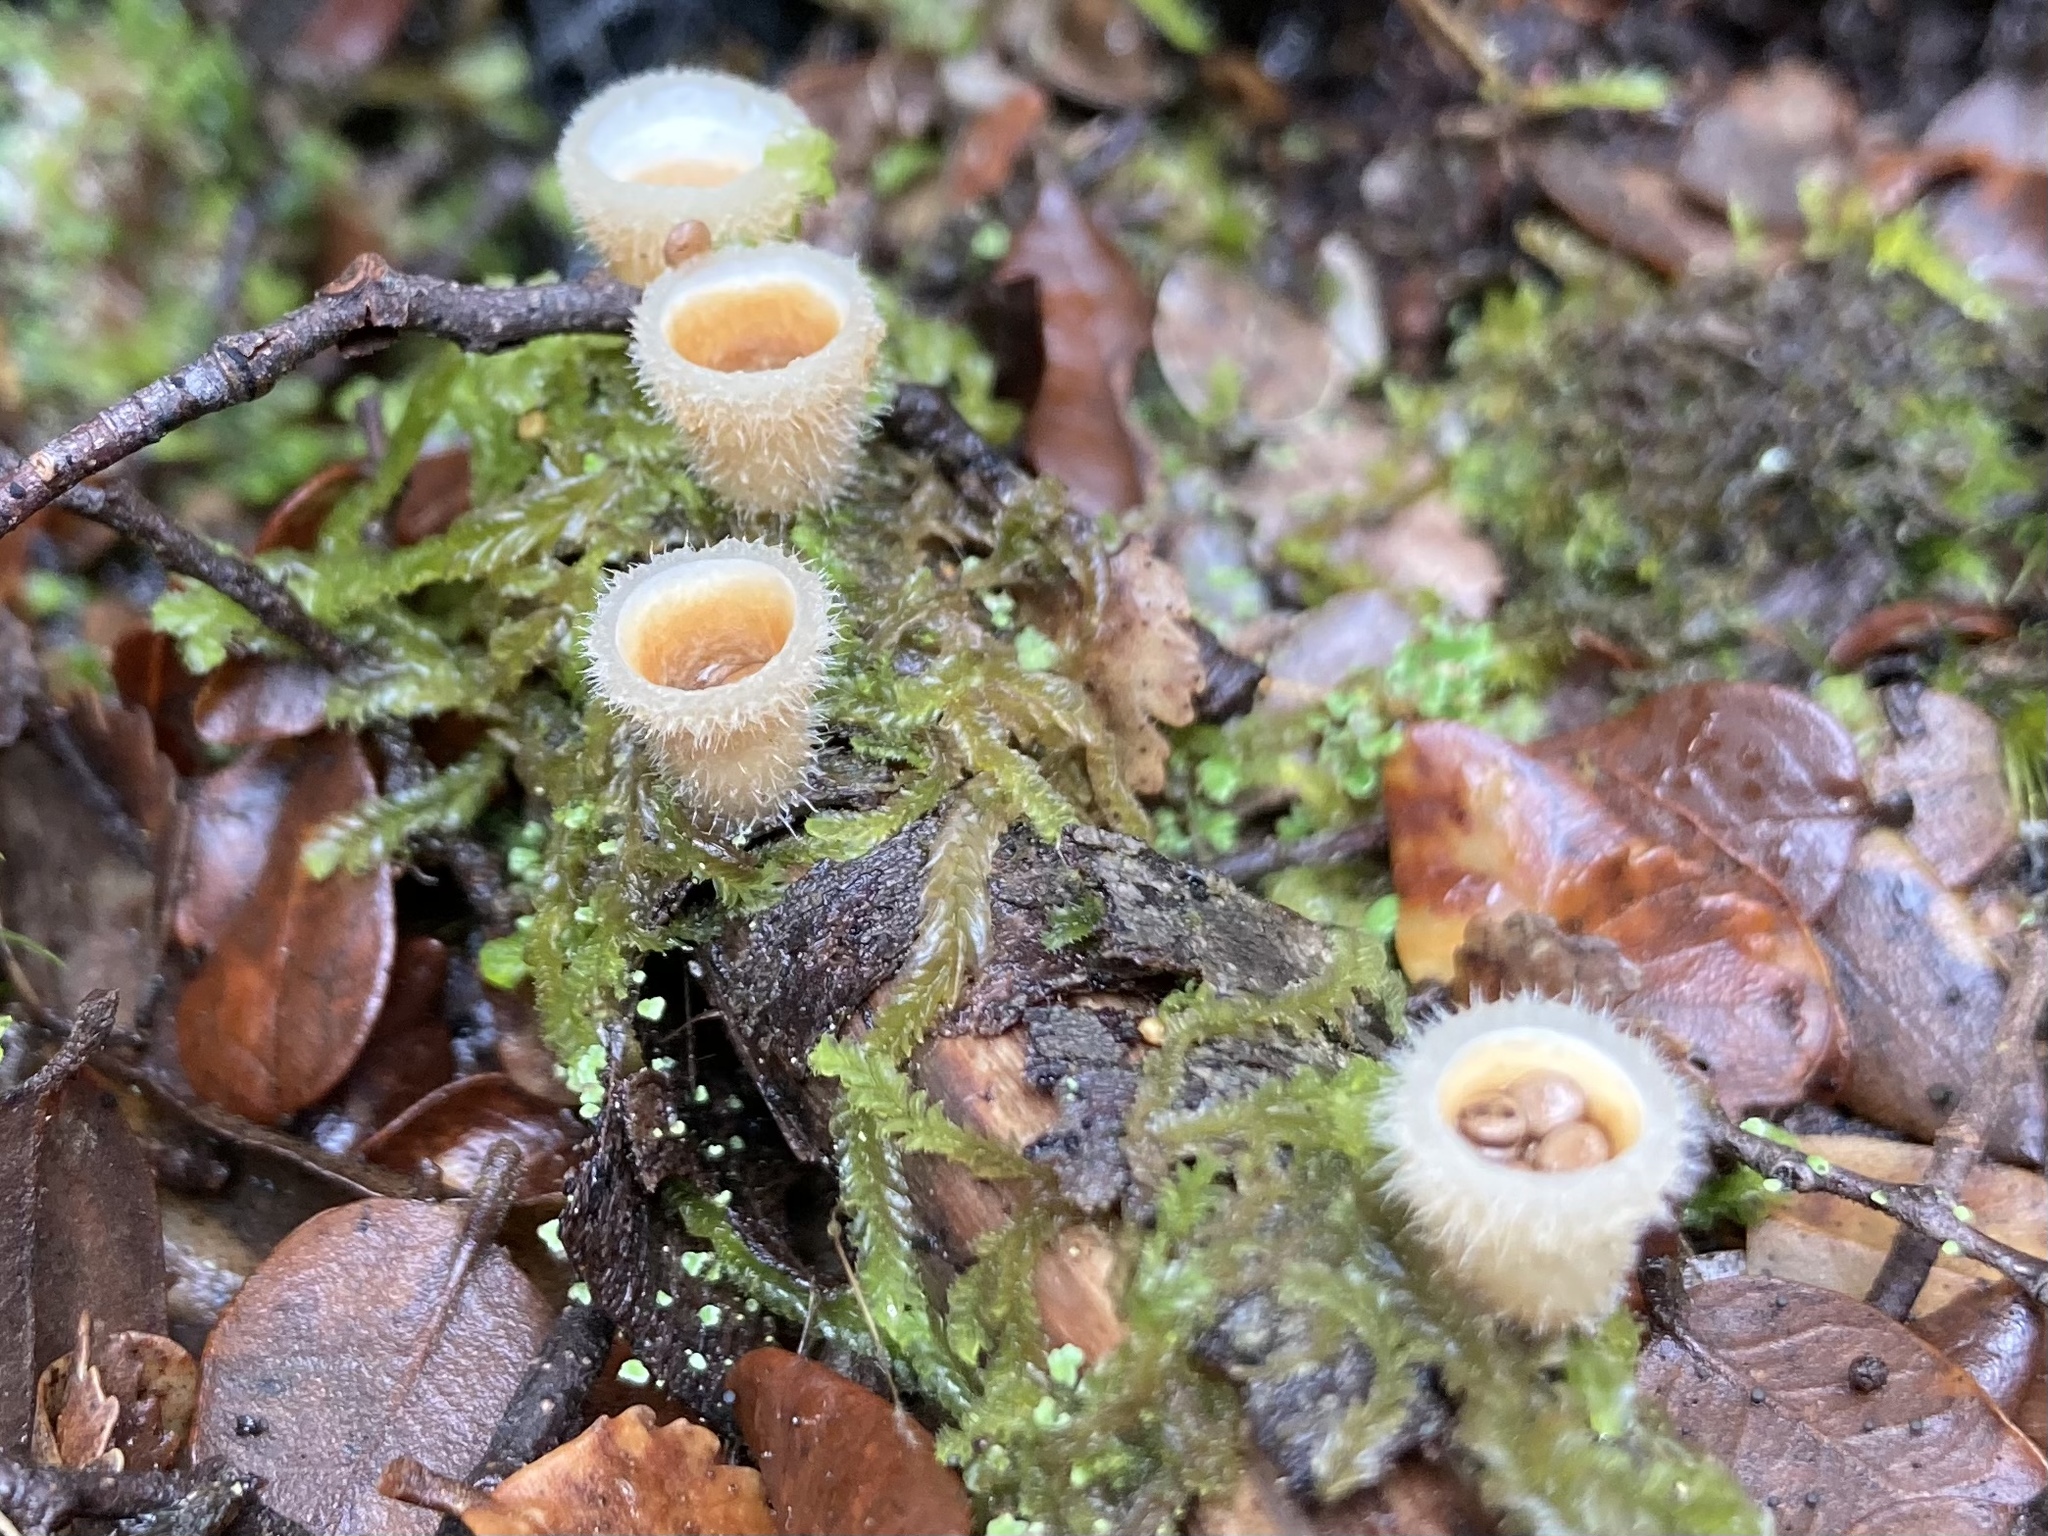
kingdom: Fungi
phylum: Basidiomycota
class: Agaricomycetes
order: Agaricales
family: Agaricaceae
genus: Nidula
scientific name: Nidula niveotomentosa
